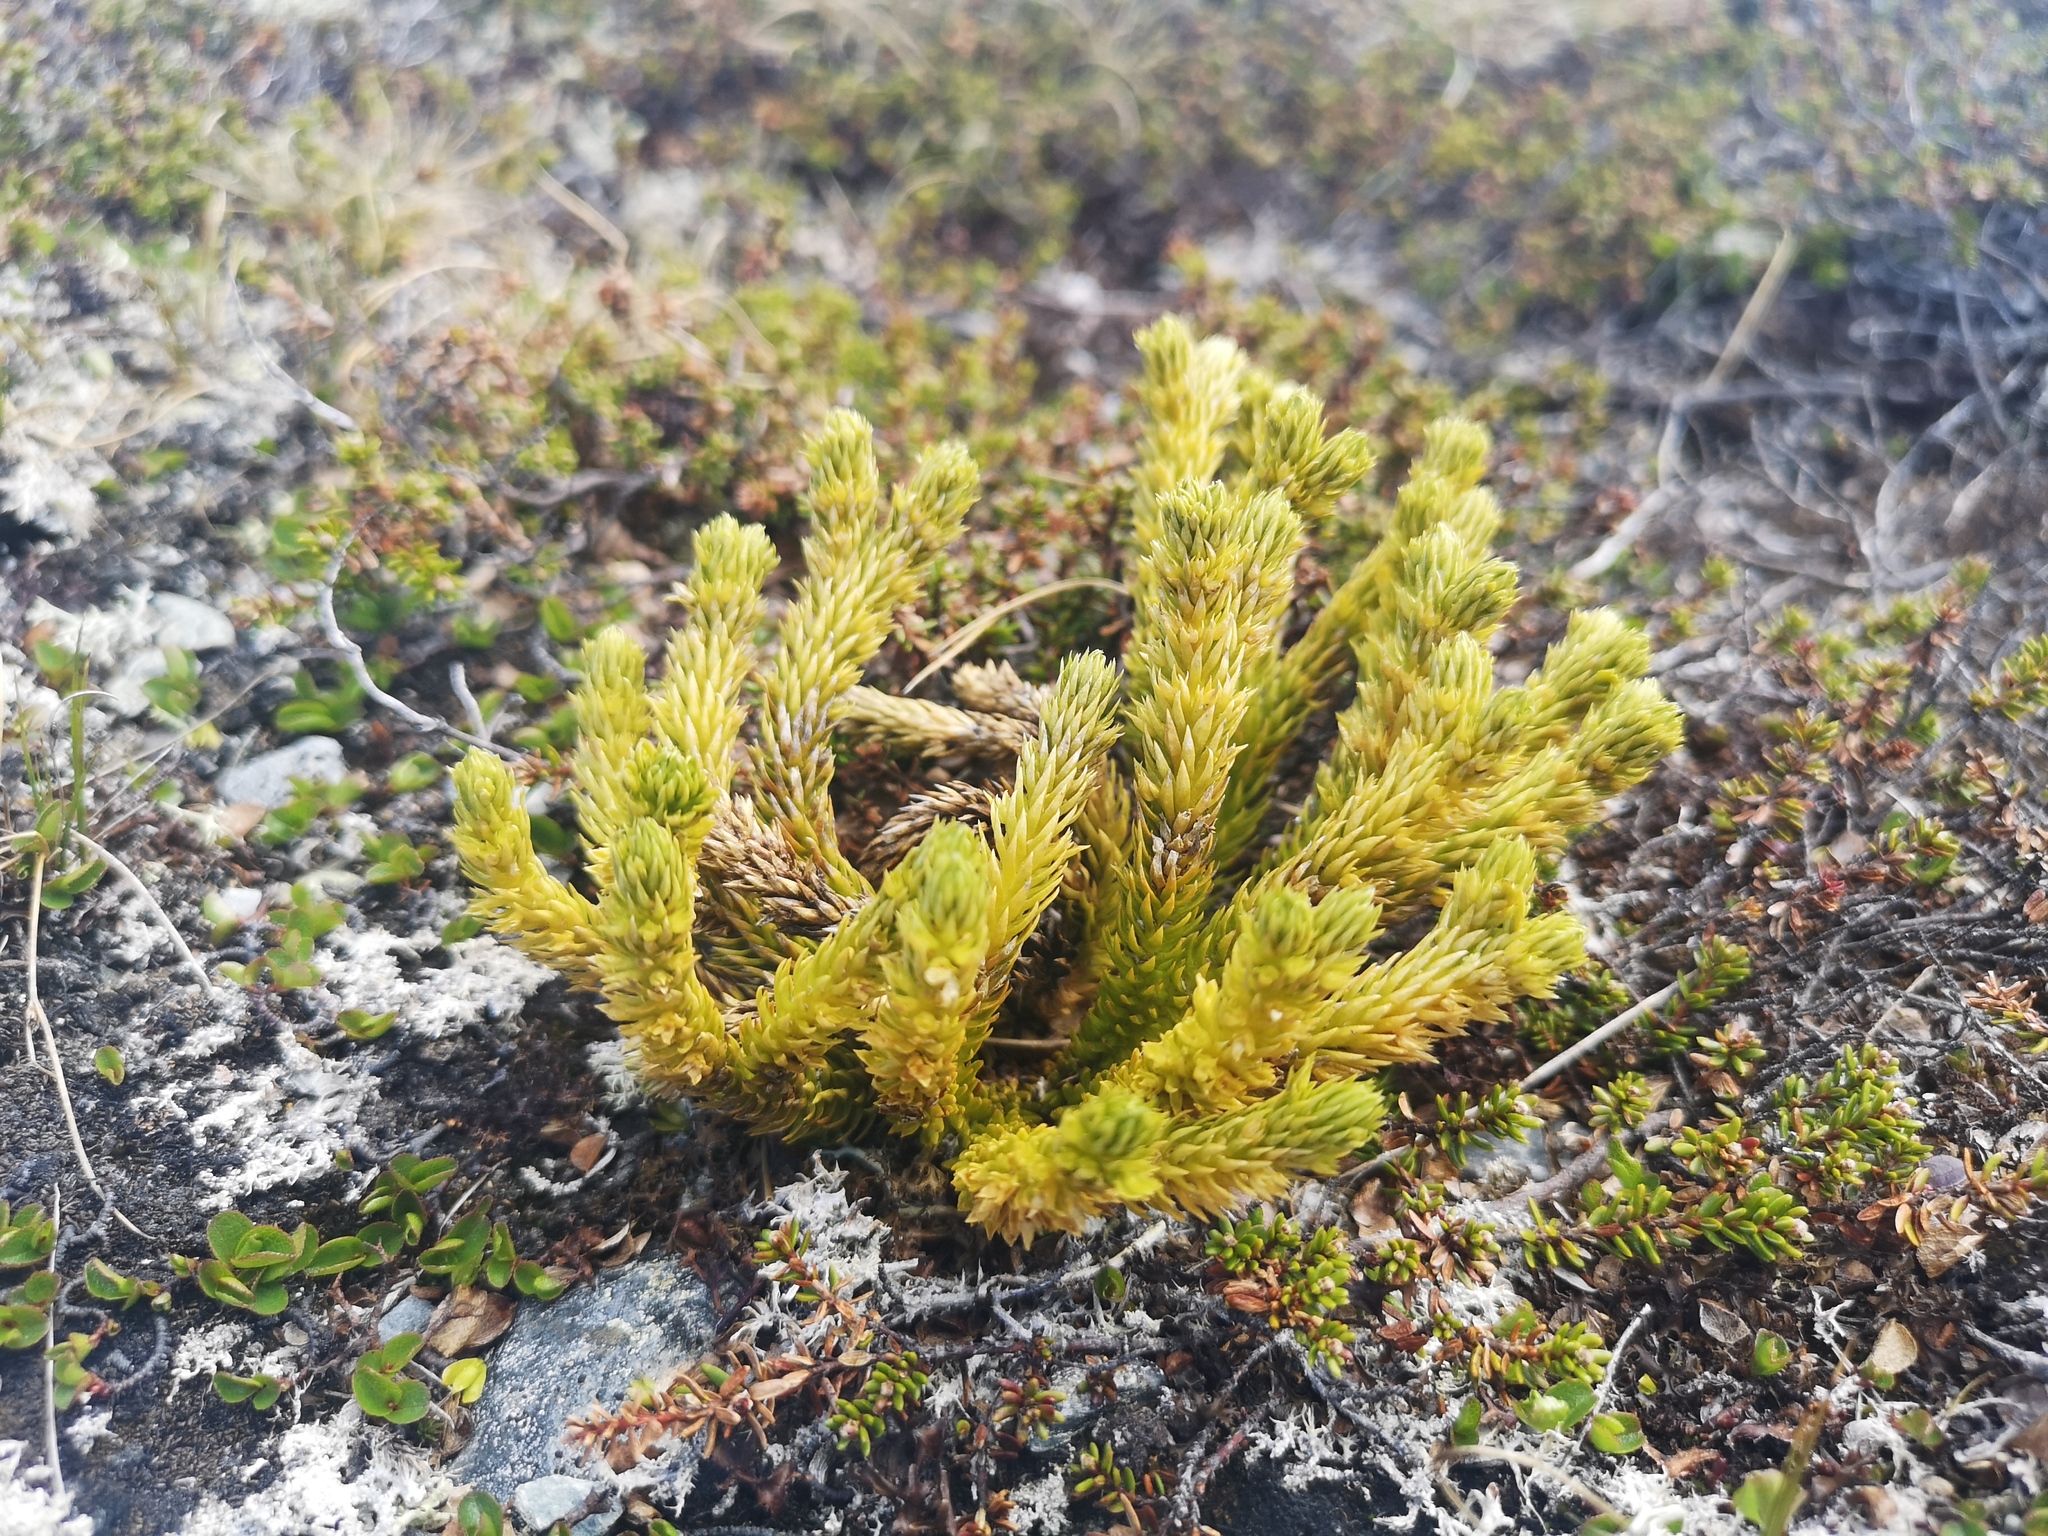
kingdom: Plantae
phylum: Tracheophyta
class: Lycopodiopsida
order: Lycopodiales
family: Lycopodiaceae
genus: Huperzia
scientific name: Huperzia selago
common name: Northern firmoss
